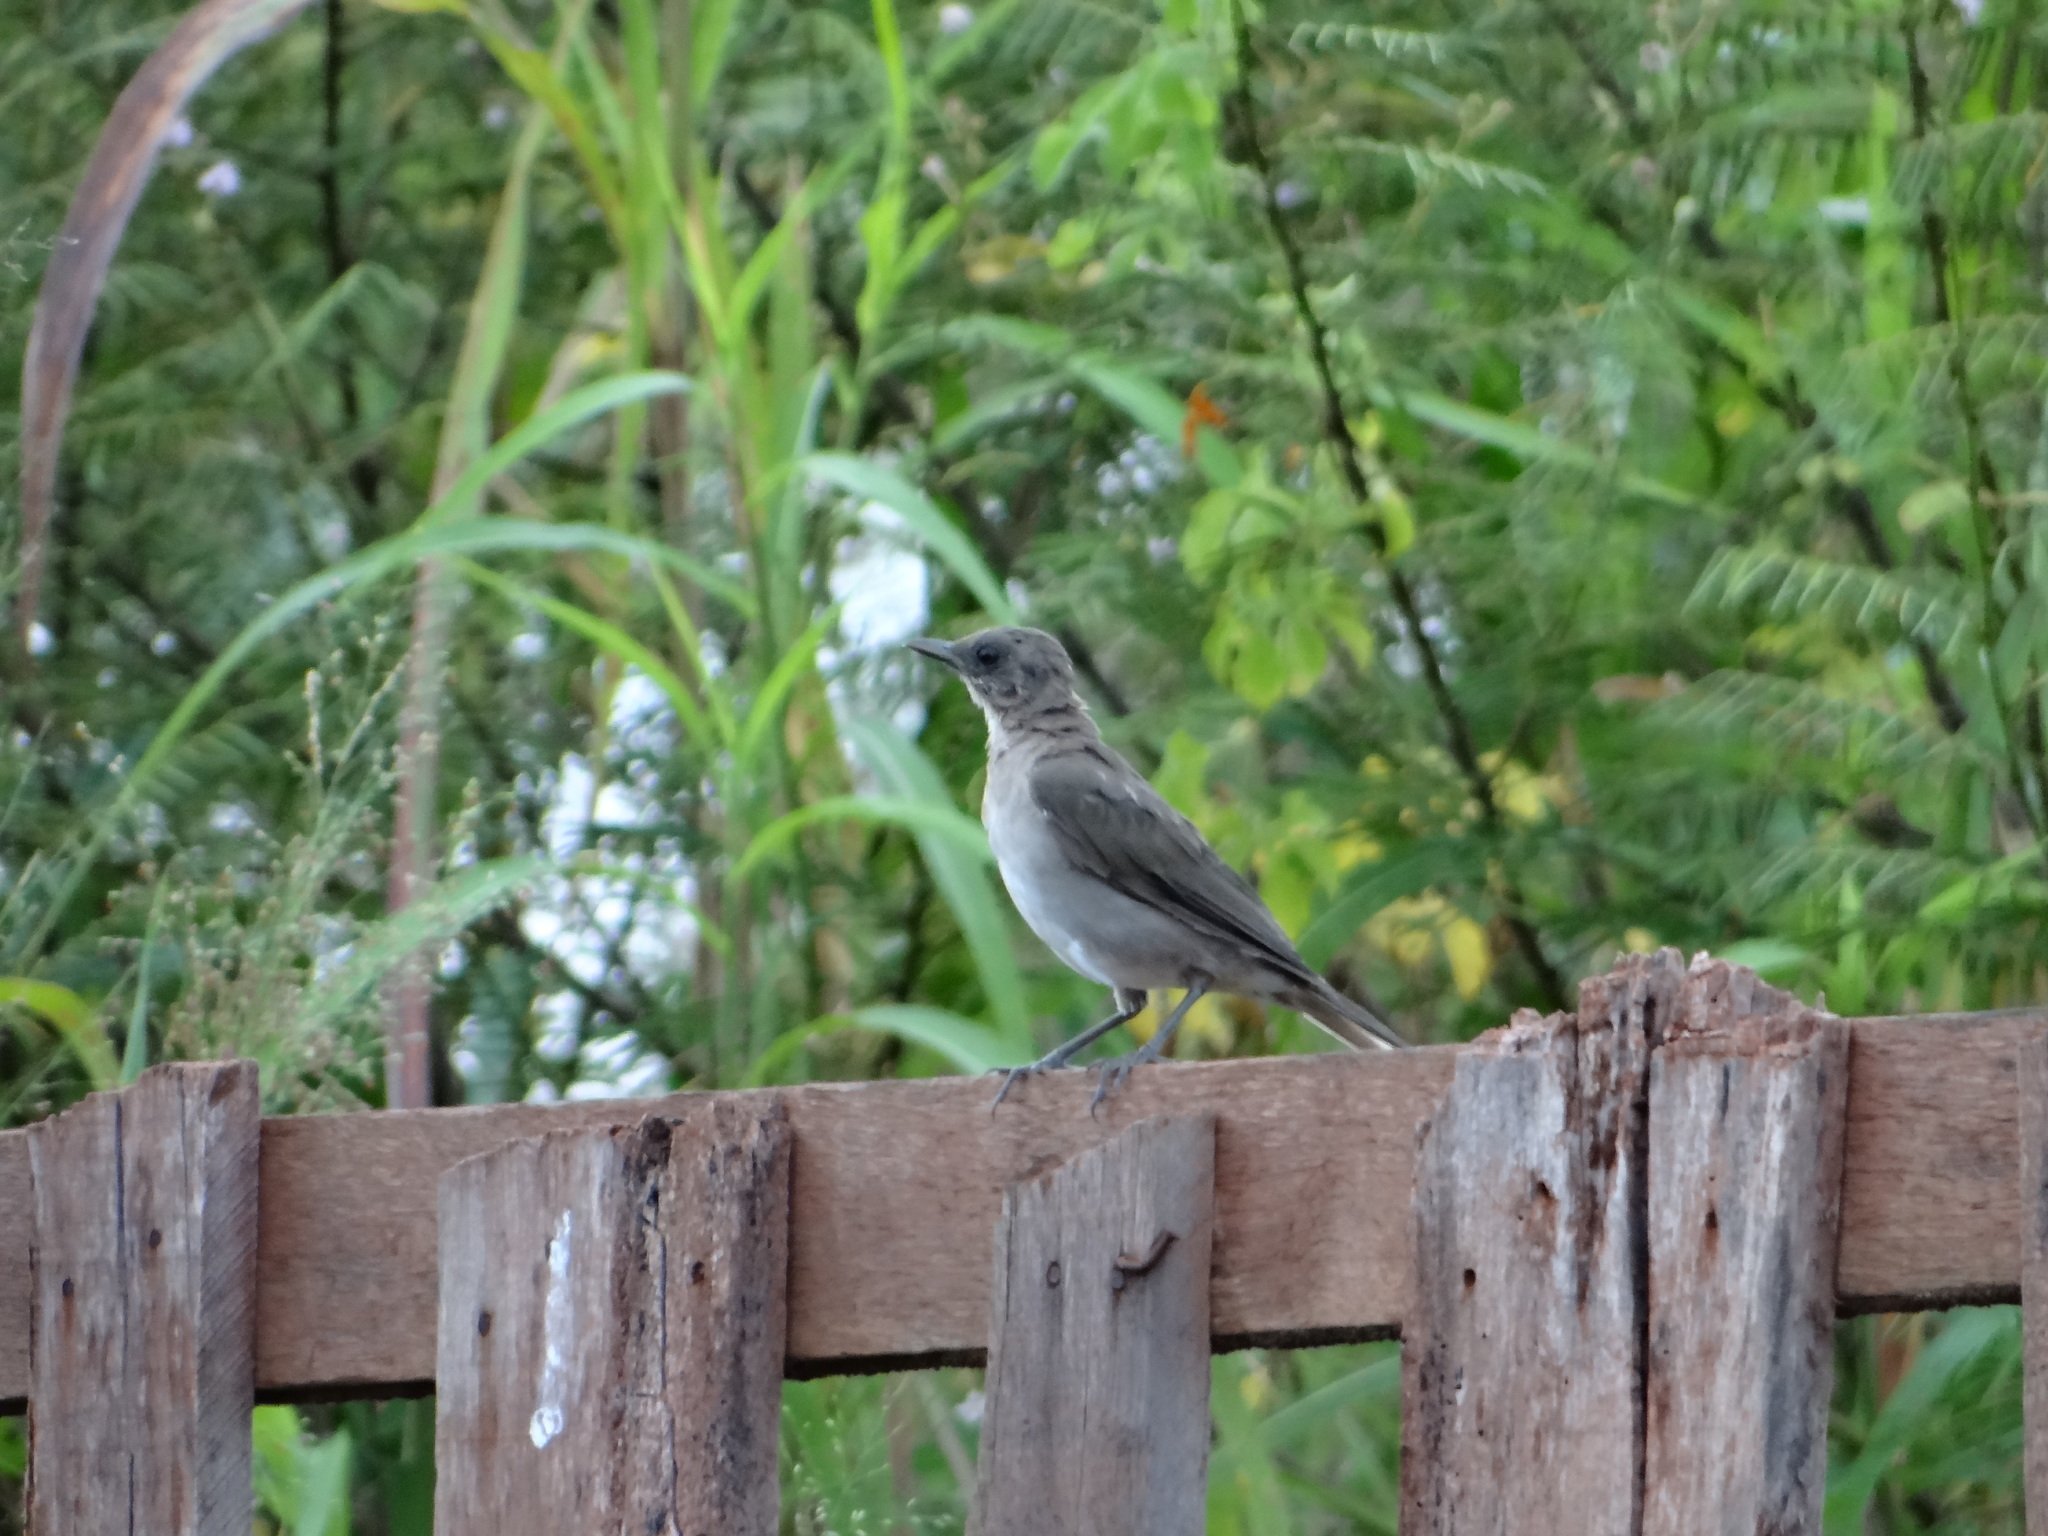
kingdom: Animalia
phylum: Chordata
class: Aves
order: Passeriformes
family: Turdidae
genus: Turdus
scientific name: Turdus ignobilis
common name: Black-billed thrush
